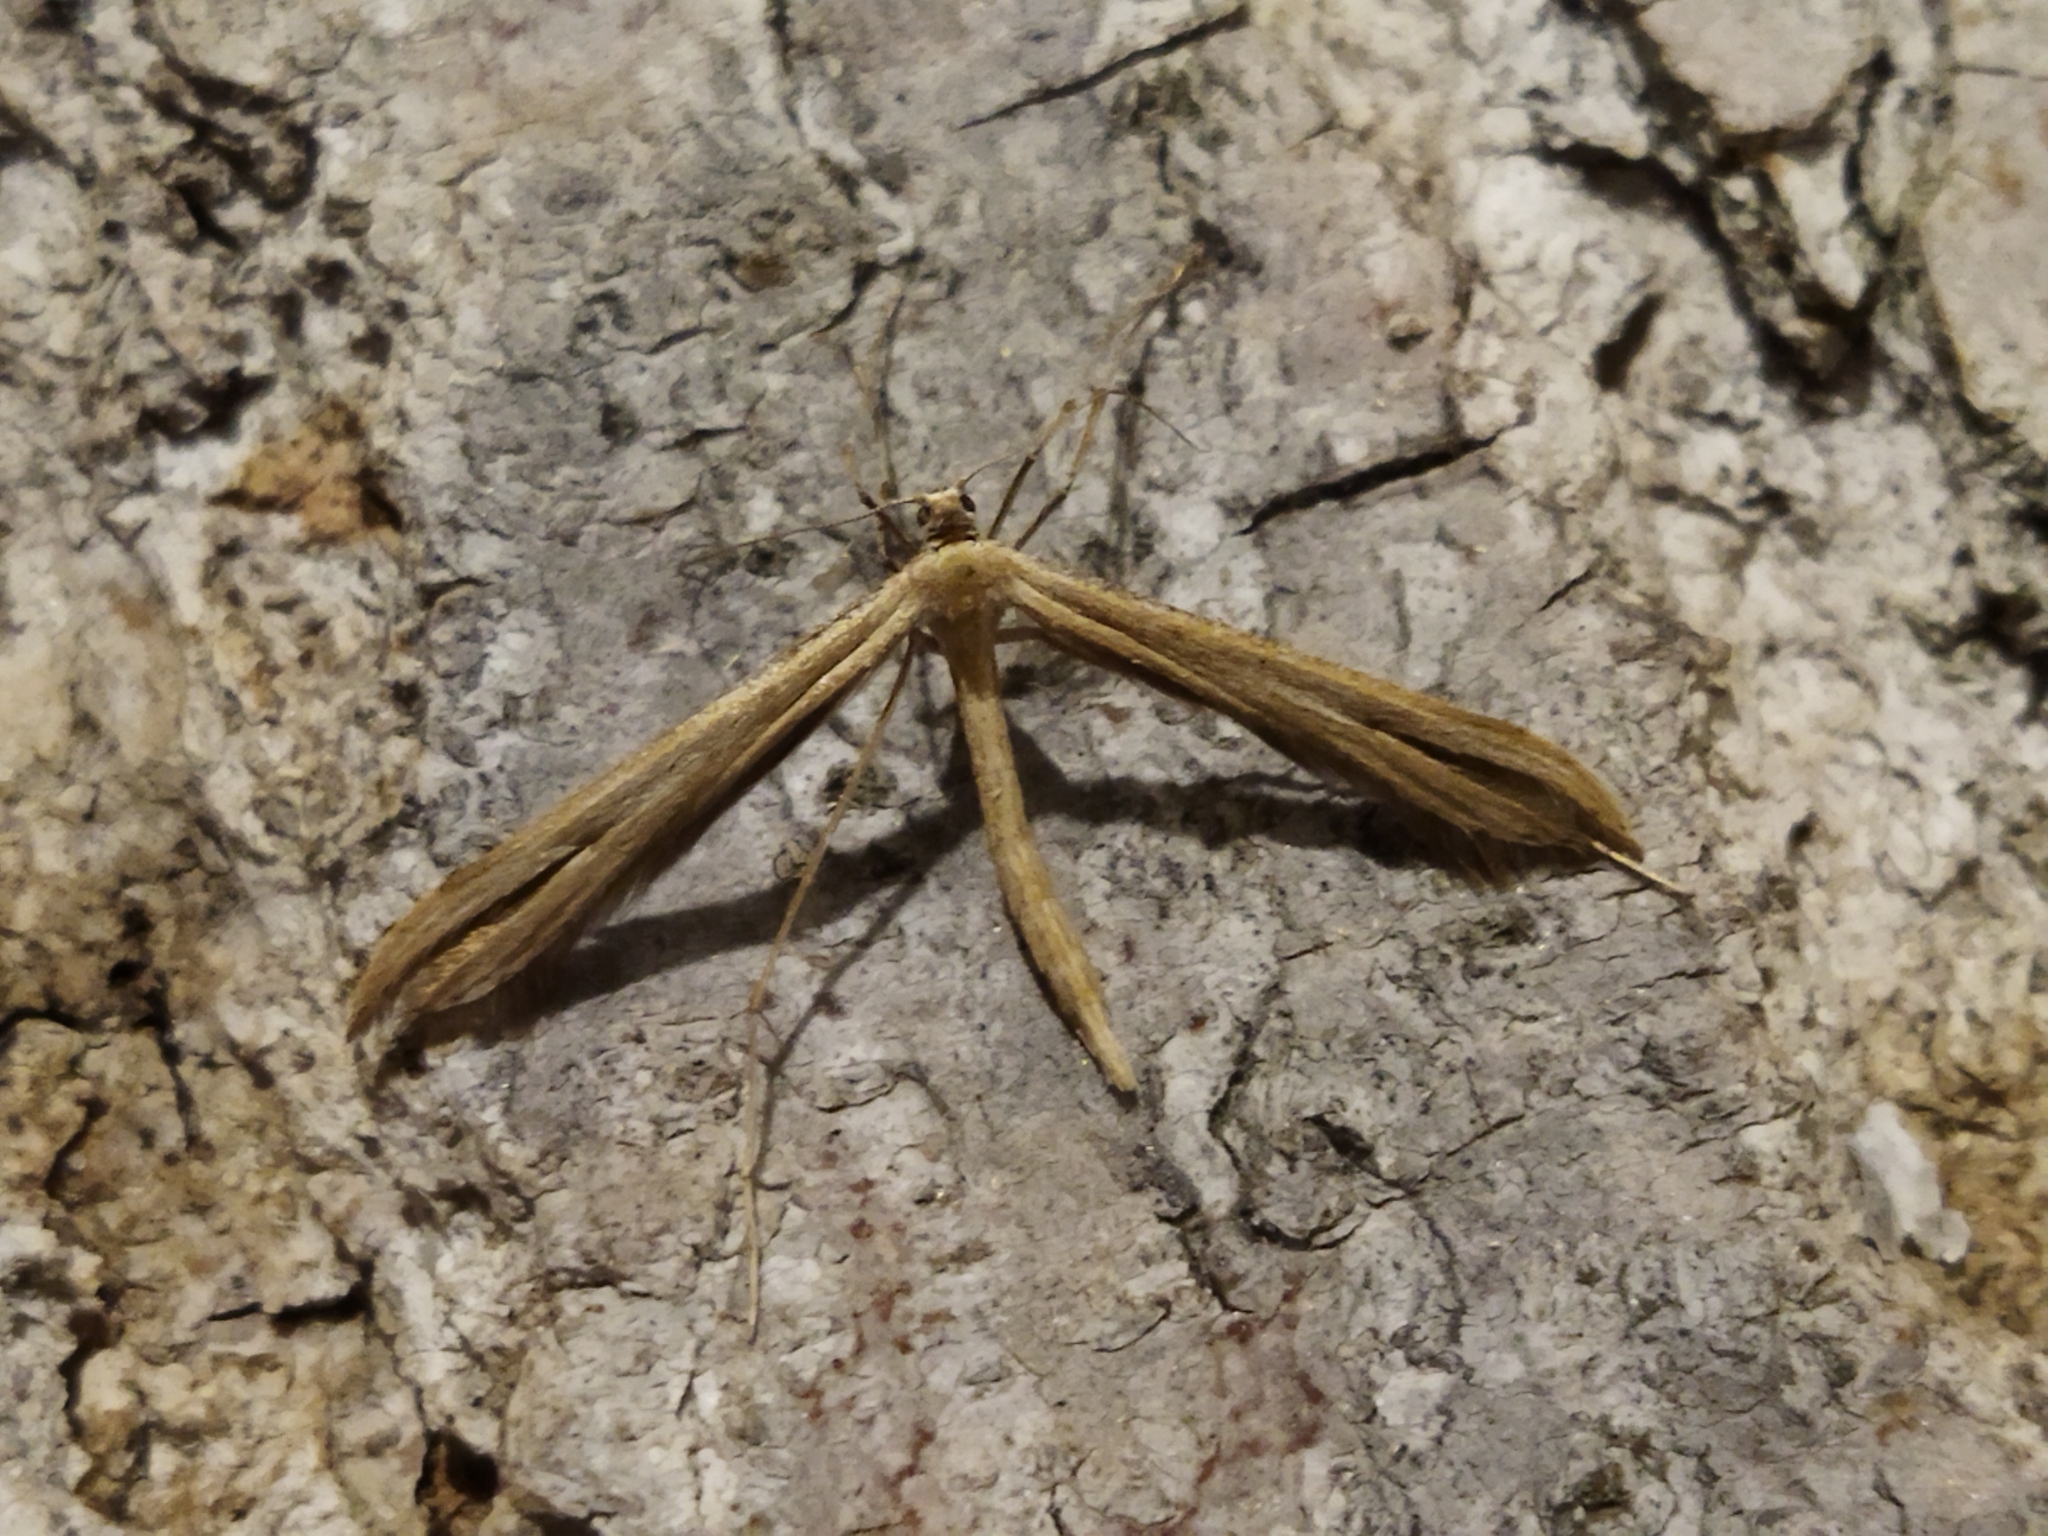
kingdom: Animalia
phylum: Arthropoda
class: Insecta
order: Lepidoptera
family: Pterophoridae
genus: Emmelina
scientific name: Emmelina monodactyla
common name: Common plume
